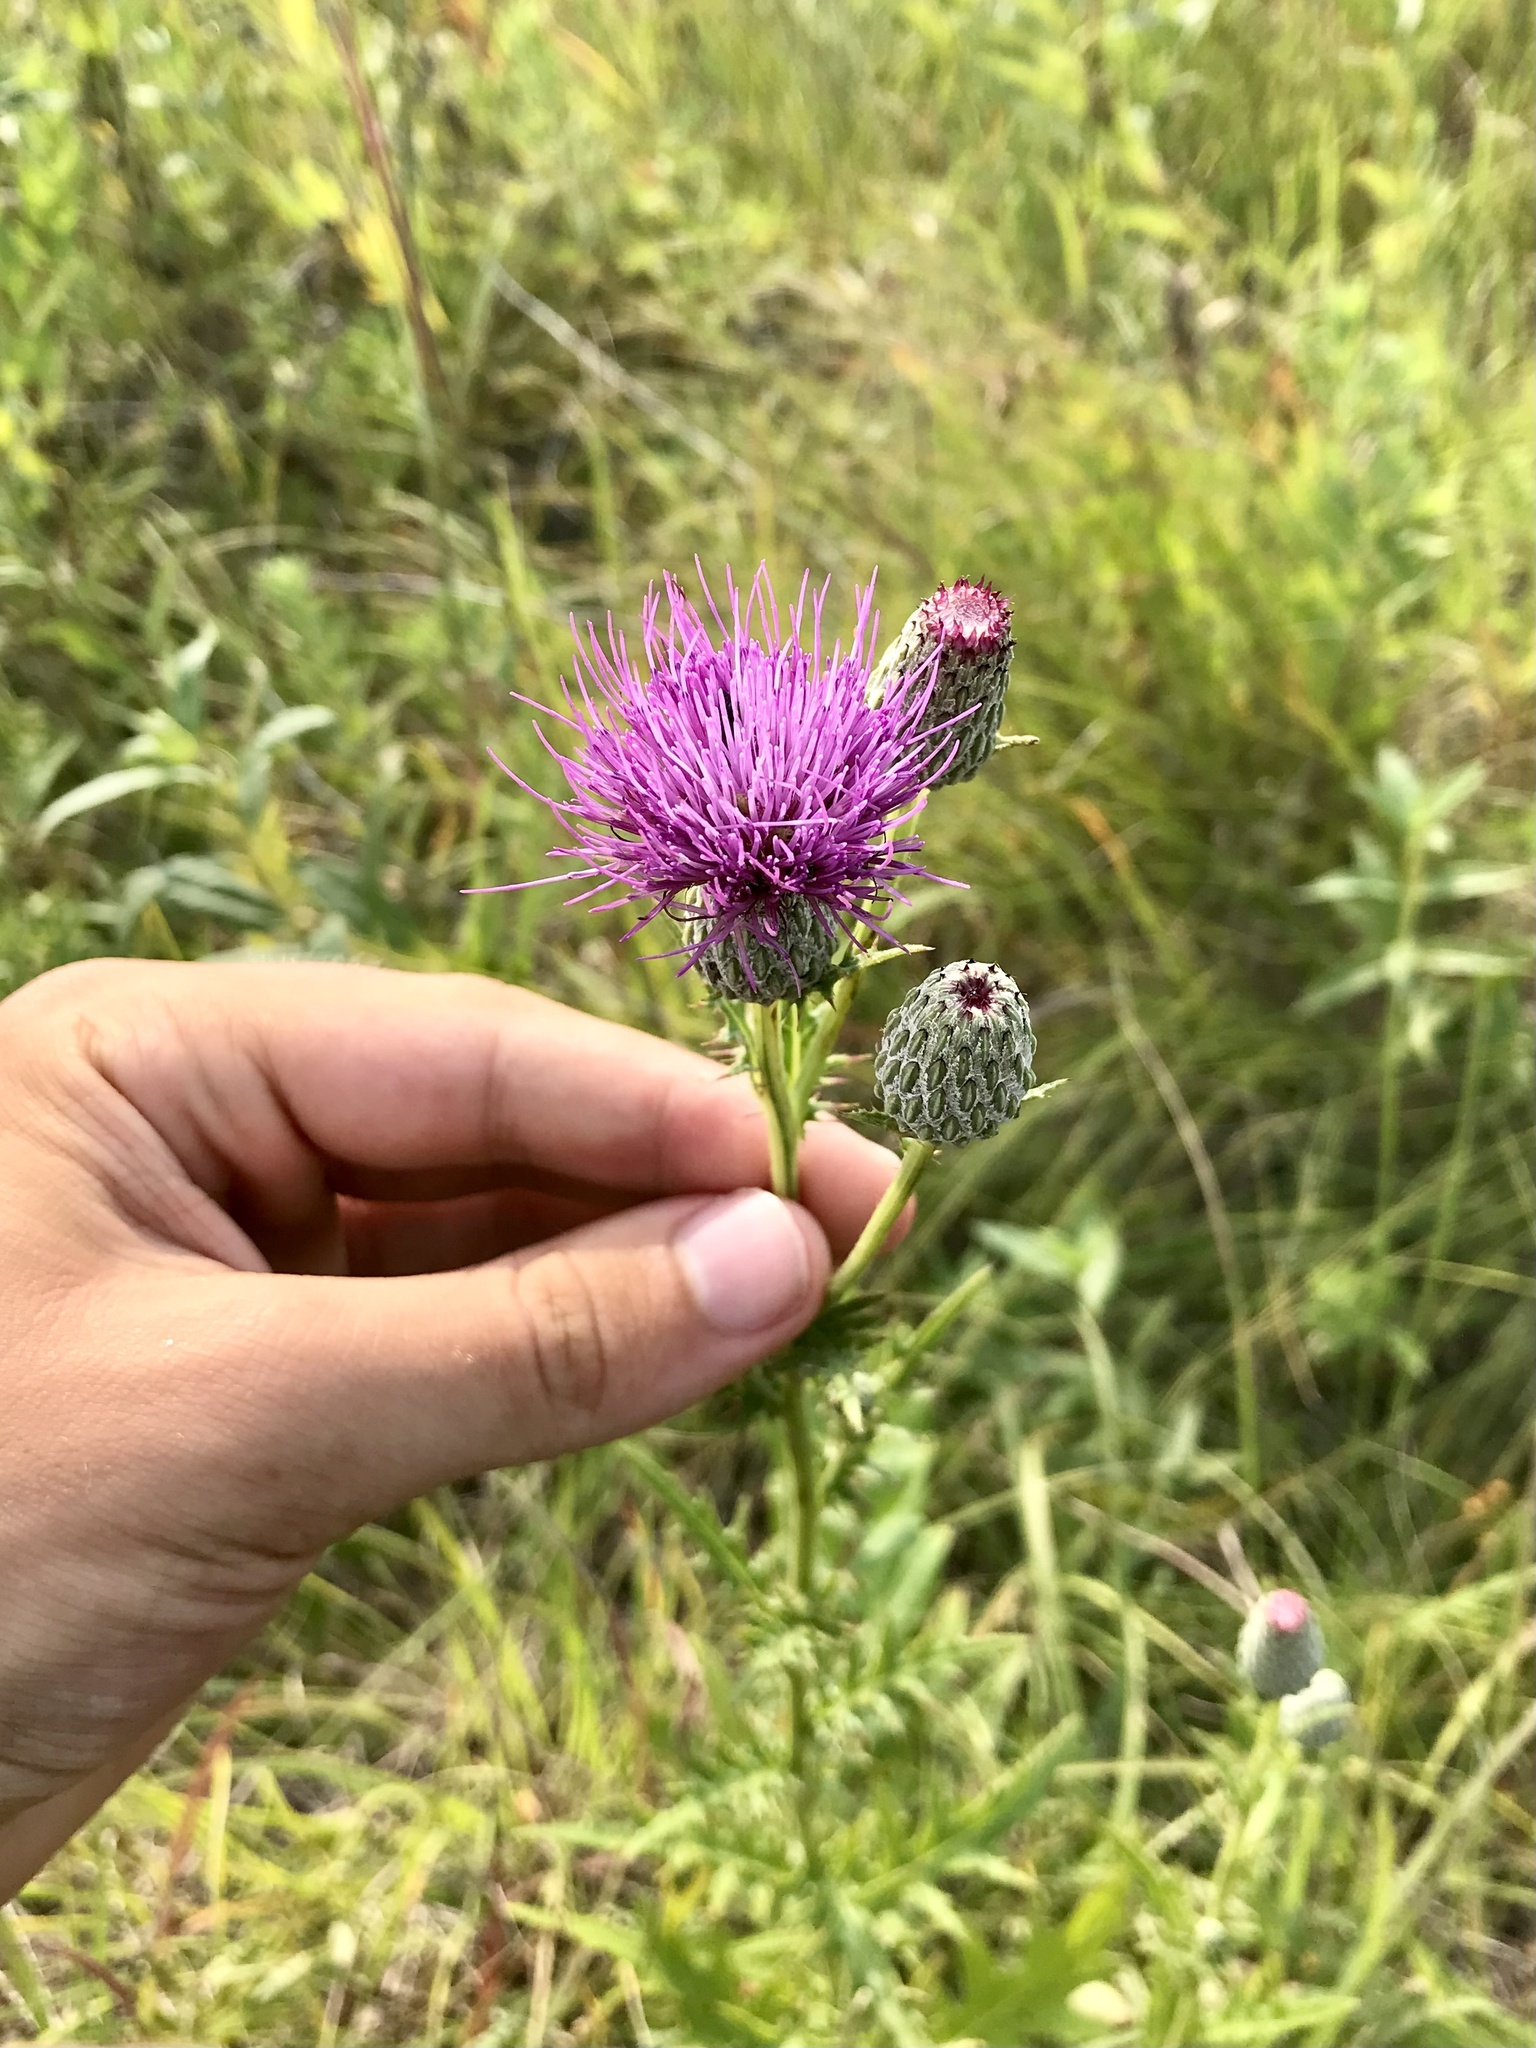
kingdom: Plantae
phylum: Tracheophyta
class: Magnoliopsida
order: Asterales
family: Asteraceae
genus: Cirsium
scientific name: Cirsium muticum
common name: Dunce-nettle
